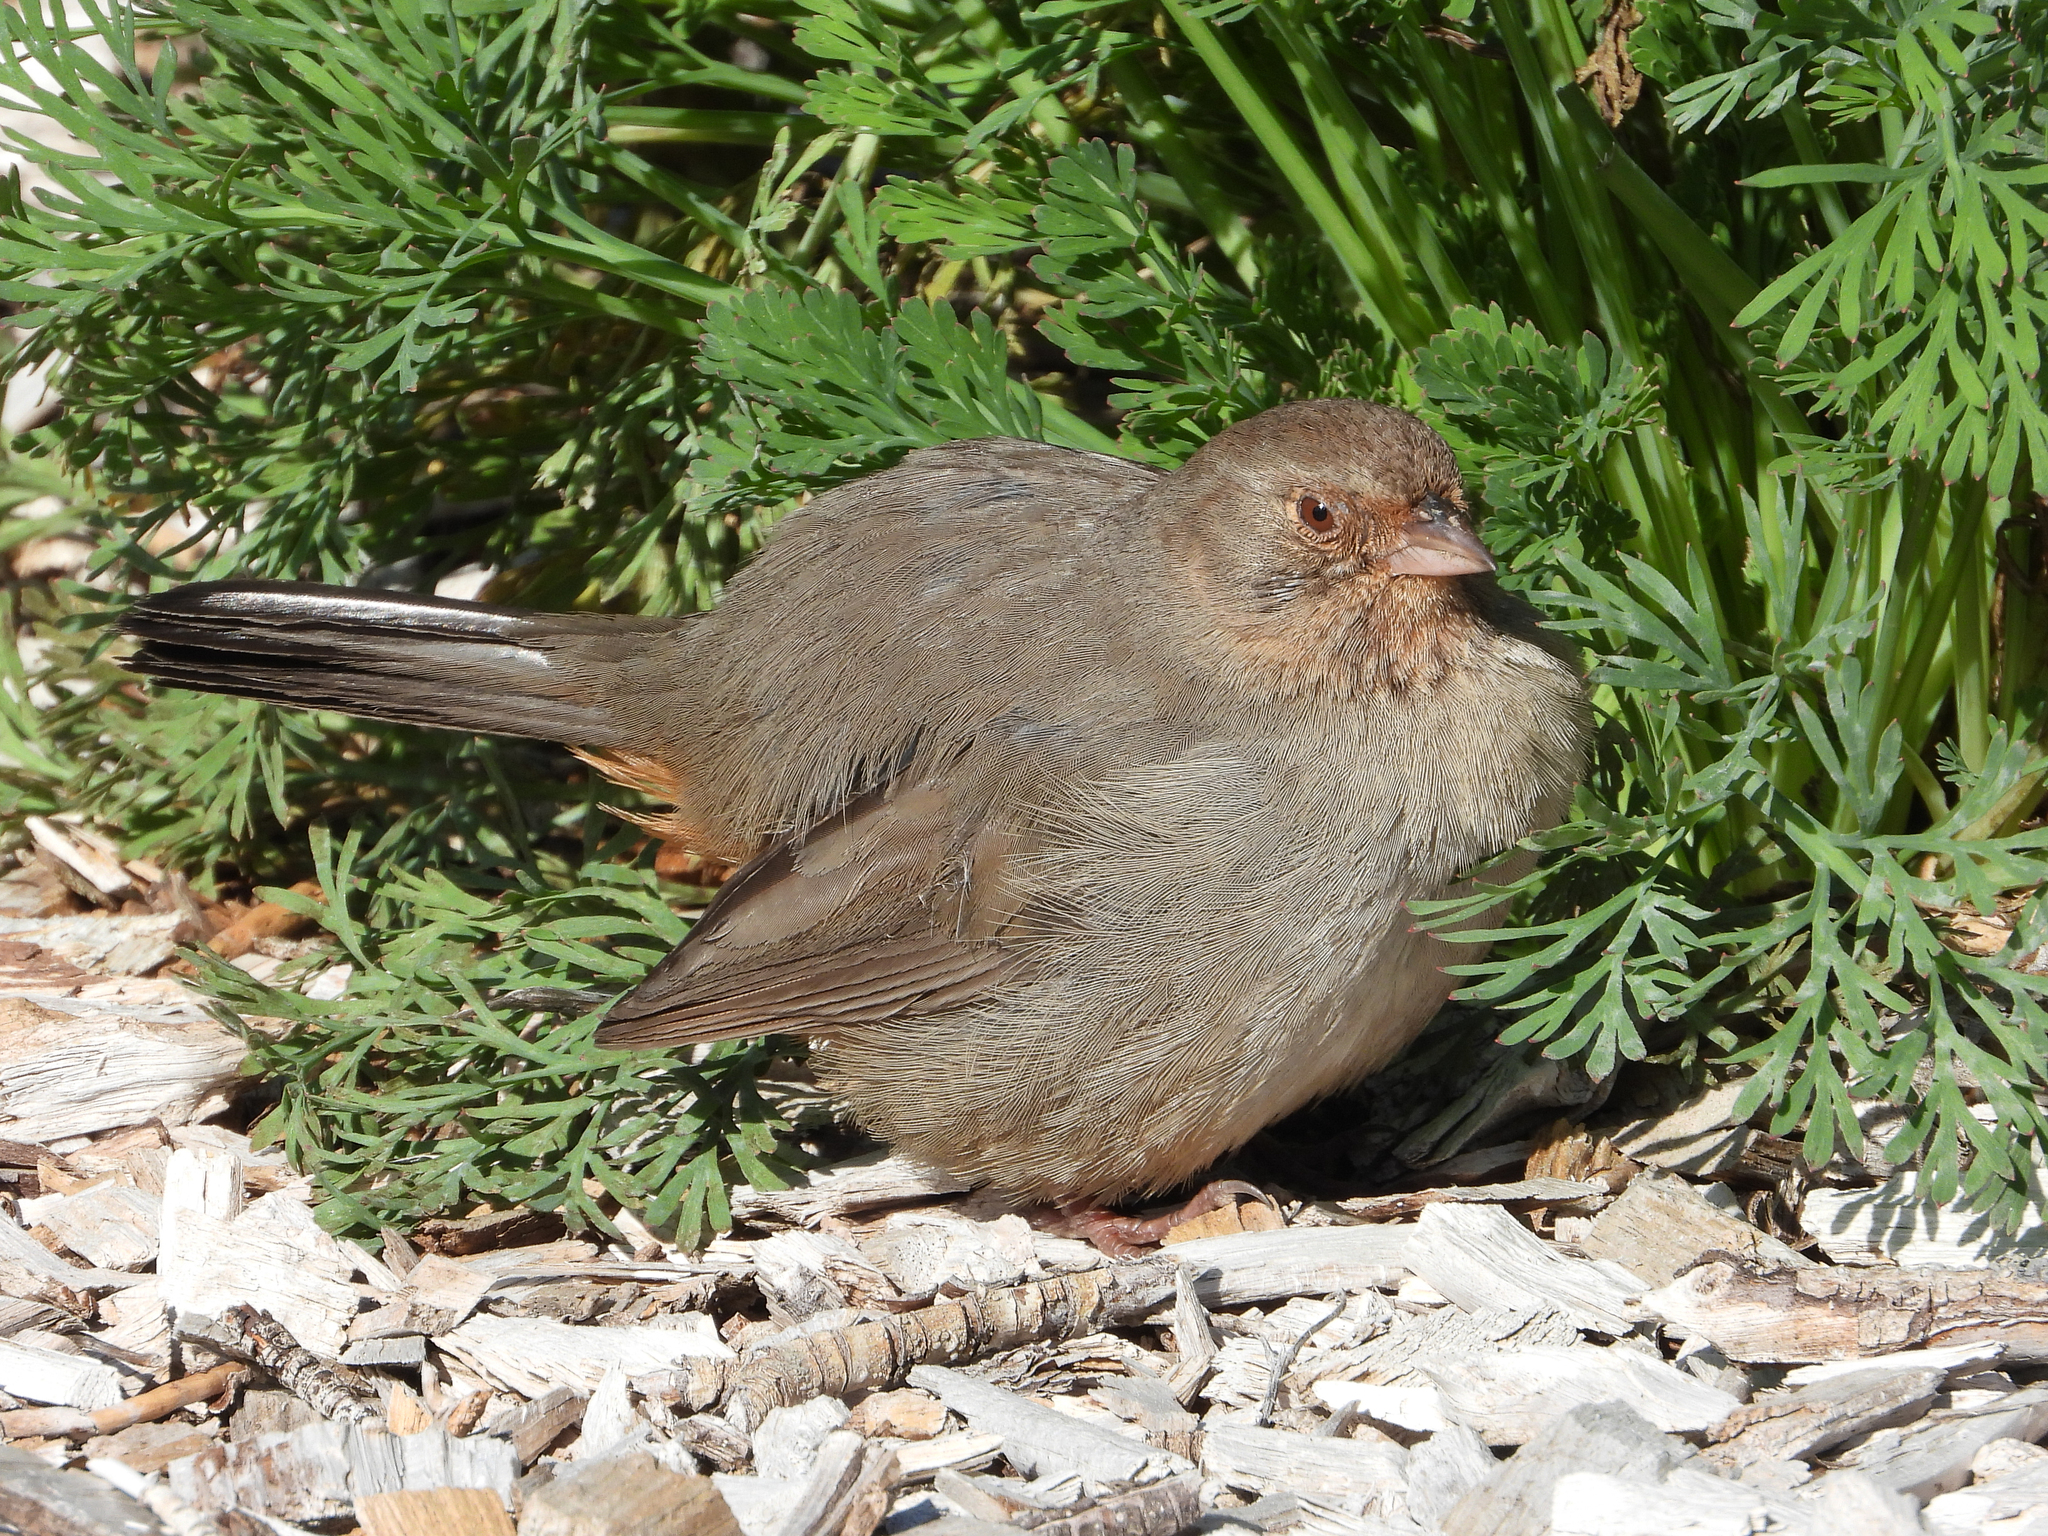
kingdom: Animalia
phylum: Chordata
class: Aves
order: Passeriformes
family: Passerellidae
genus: Melozone
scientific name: Melozone crissalis
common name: California towhee
